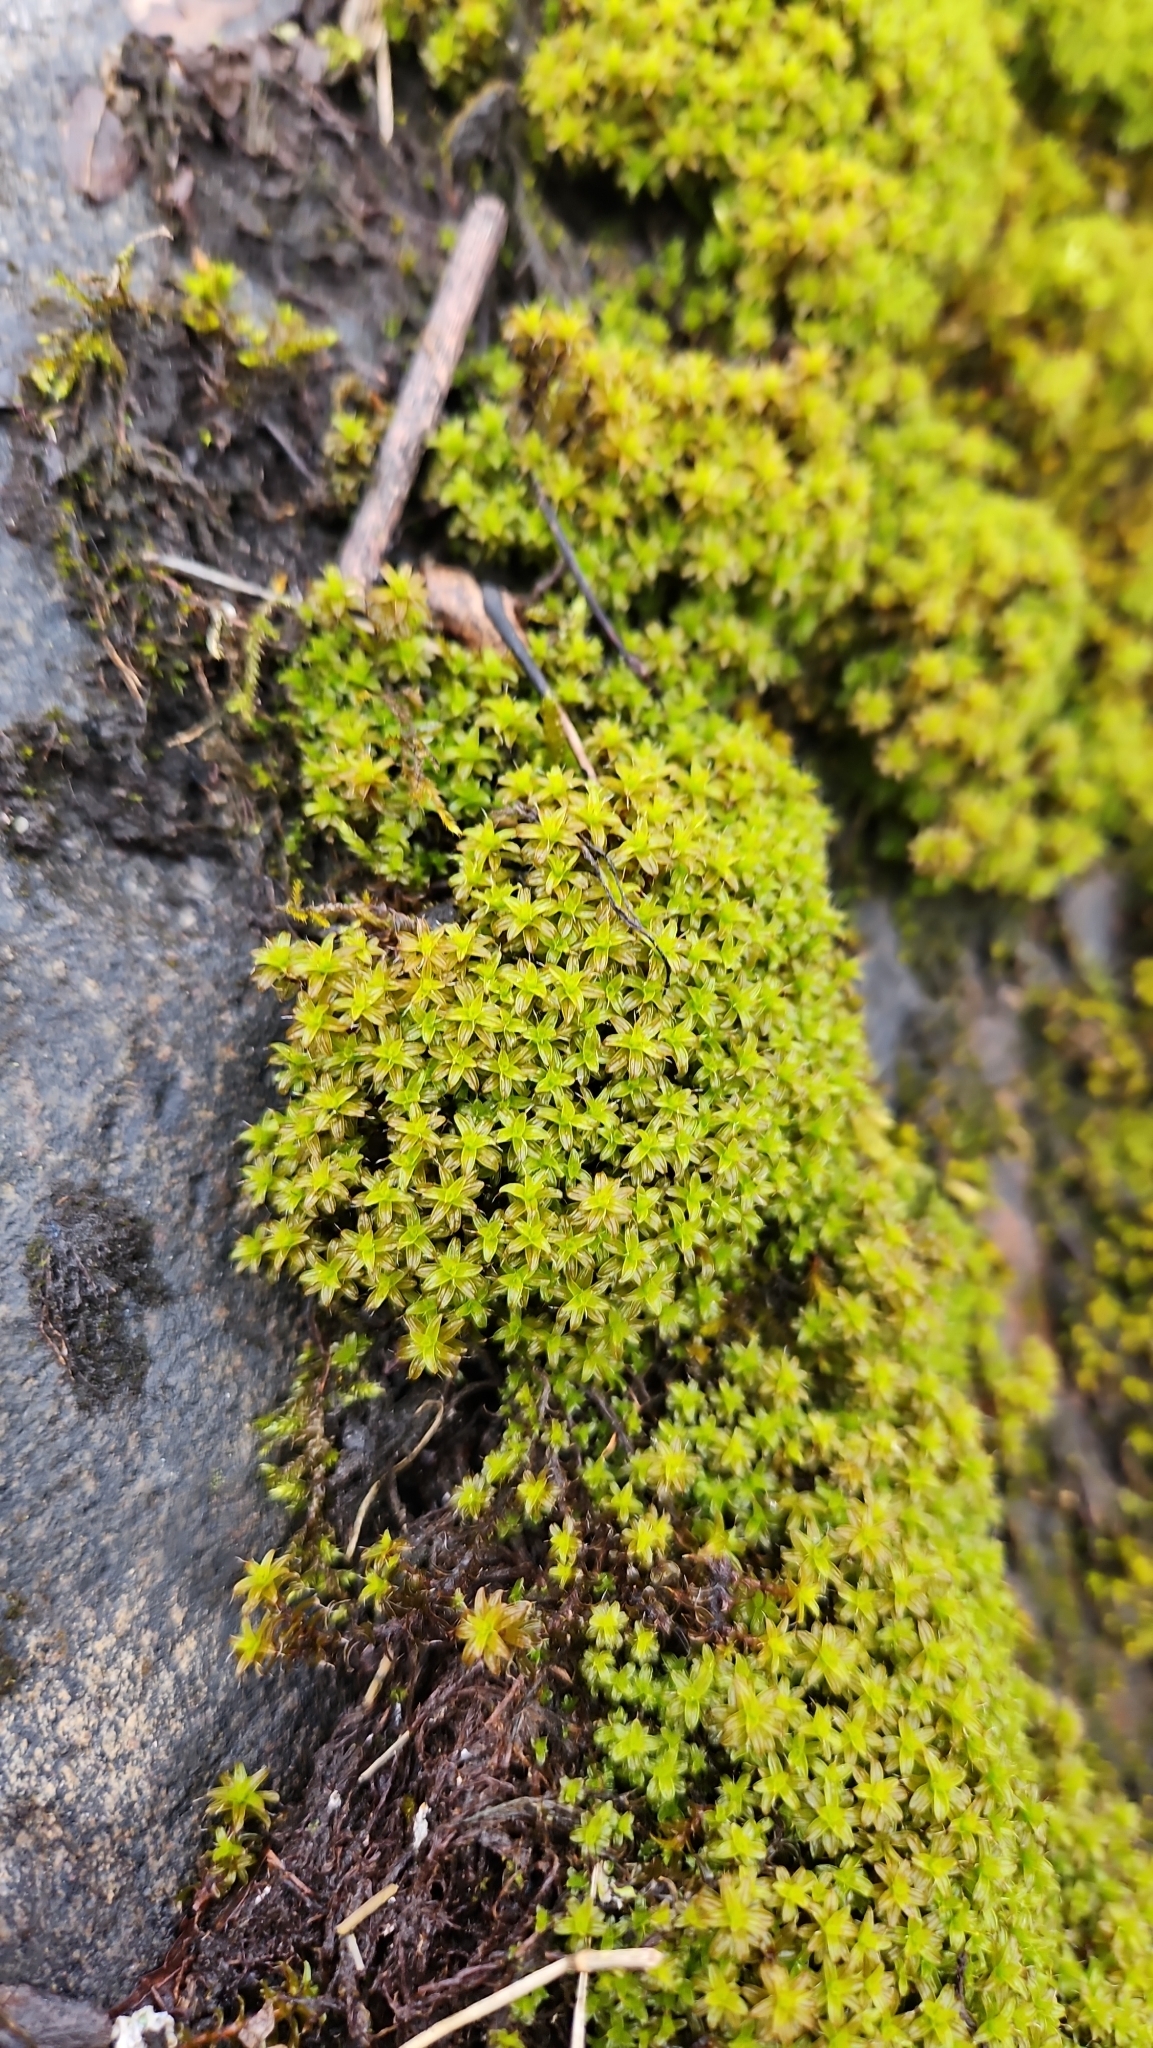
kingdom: Plantae
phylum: Bryophyta
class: Bryopsida
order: Pottiales
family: Pottiaceae
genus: Syntrichia
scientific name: Syntrichia ruralis
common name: Sidewalk screw moss
